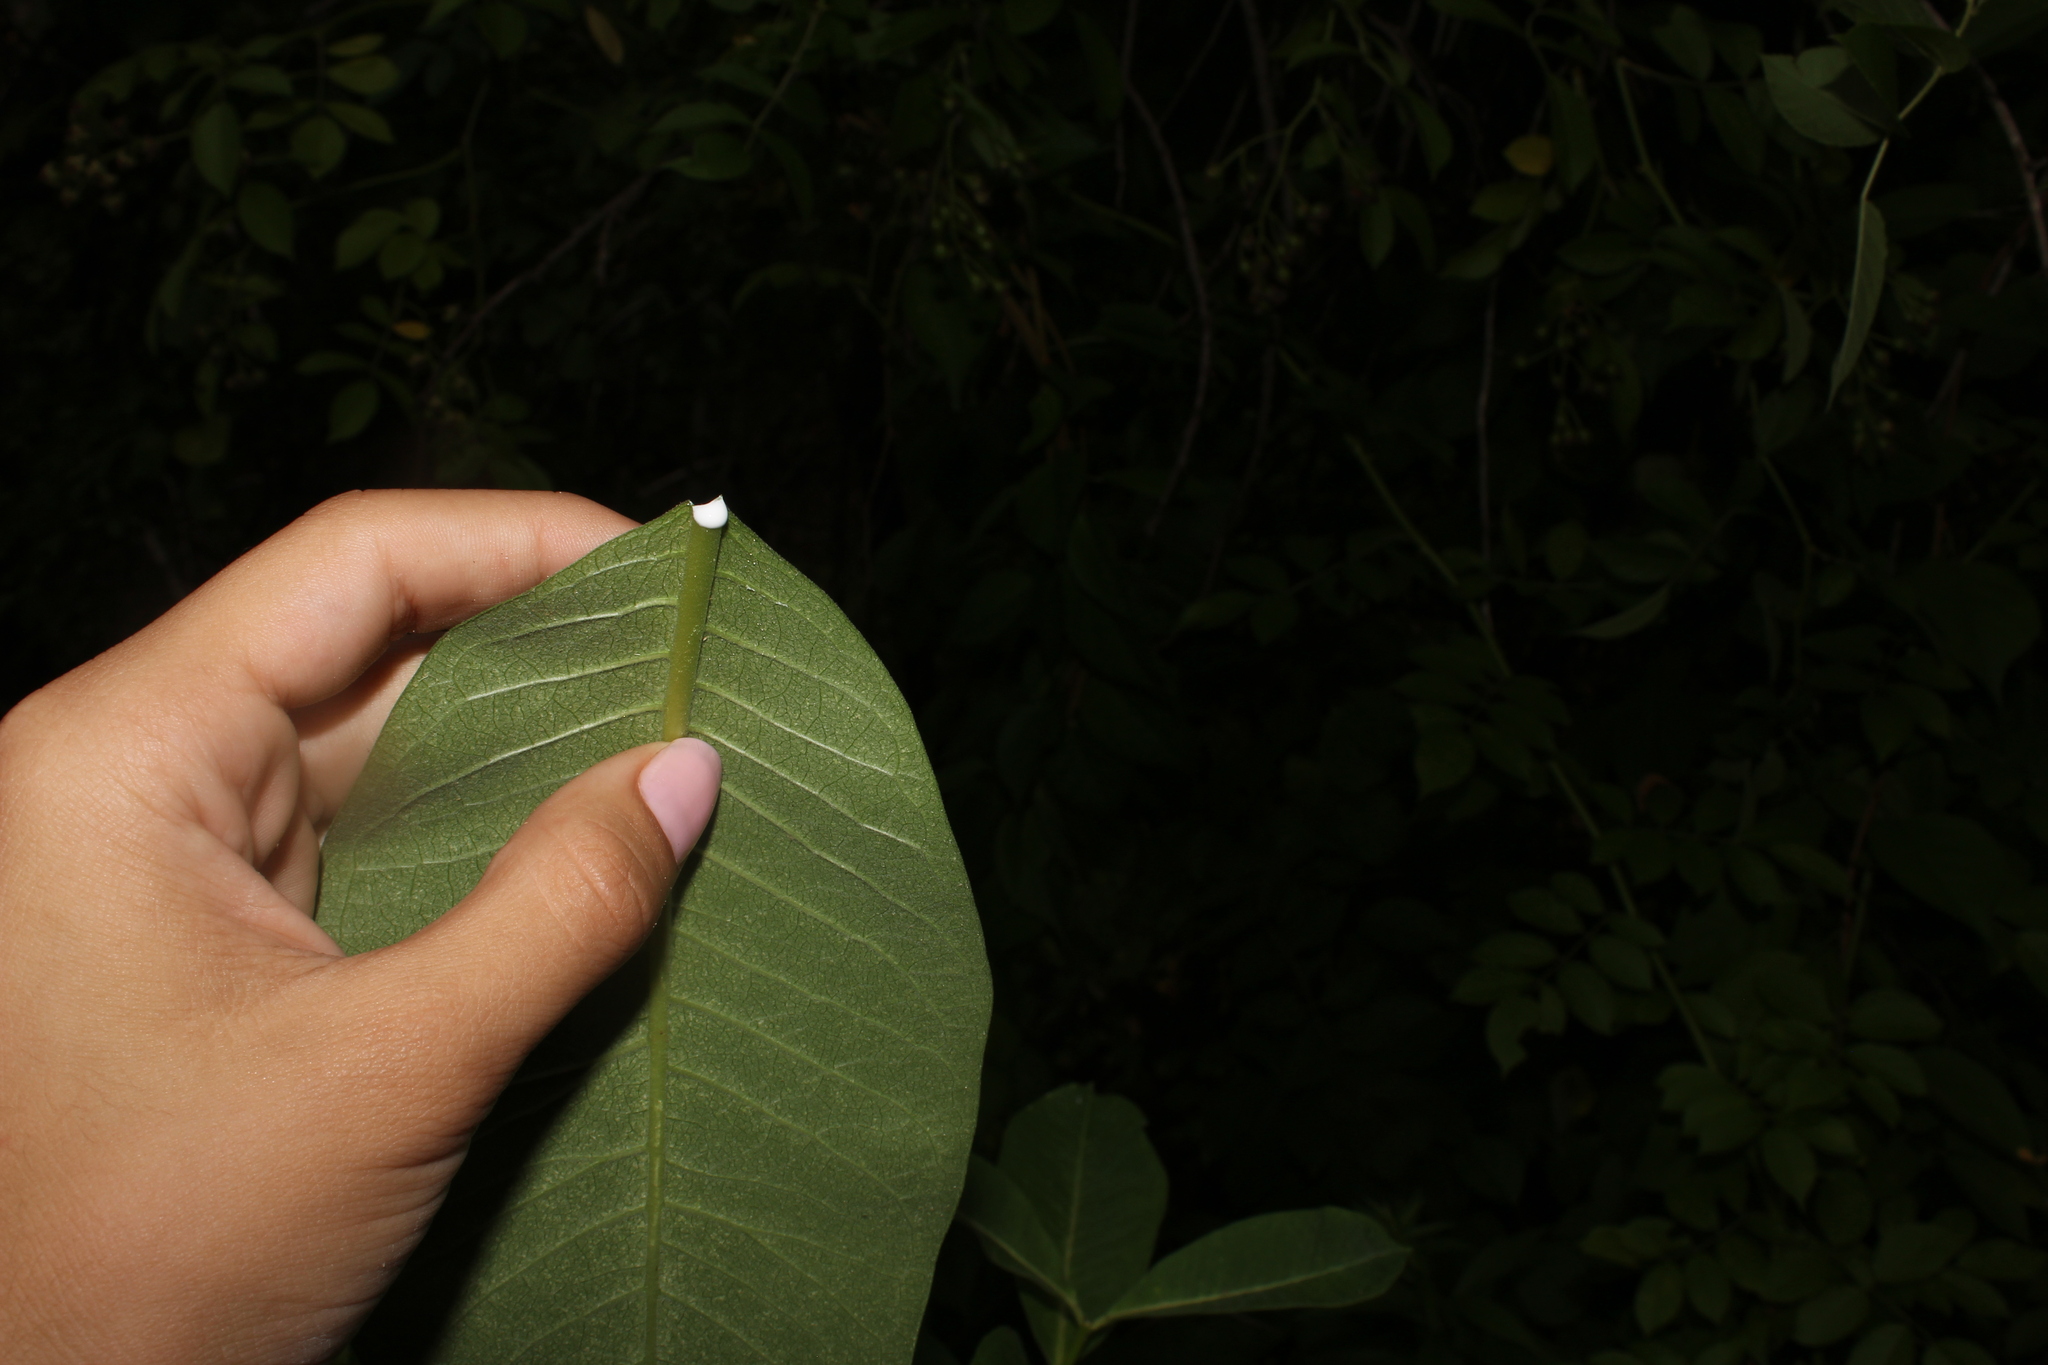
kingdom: Plantae
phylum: Tracheophyta
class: Magnoliopsida
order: Gentianales
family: Apocynaceae
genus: Asclepias
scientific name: Asclepias syriaca
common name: Common milkweed
